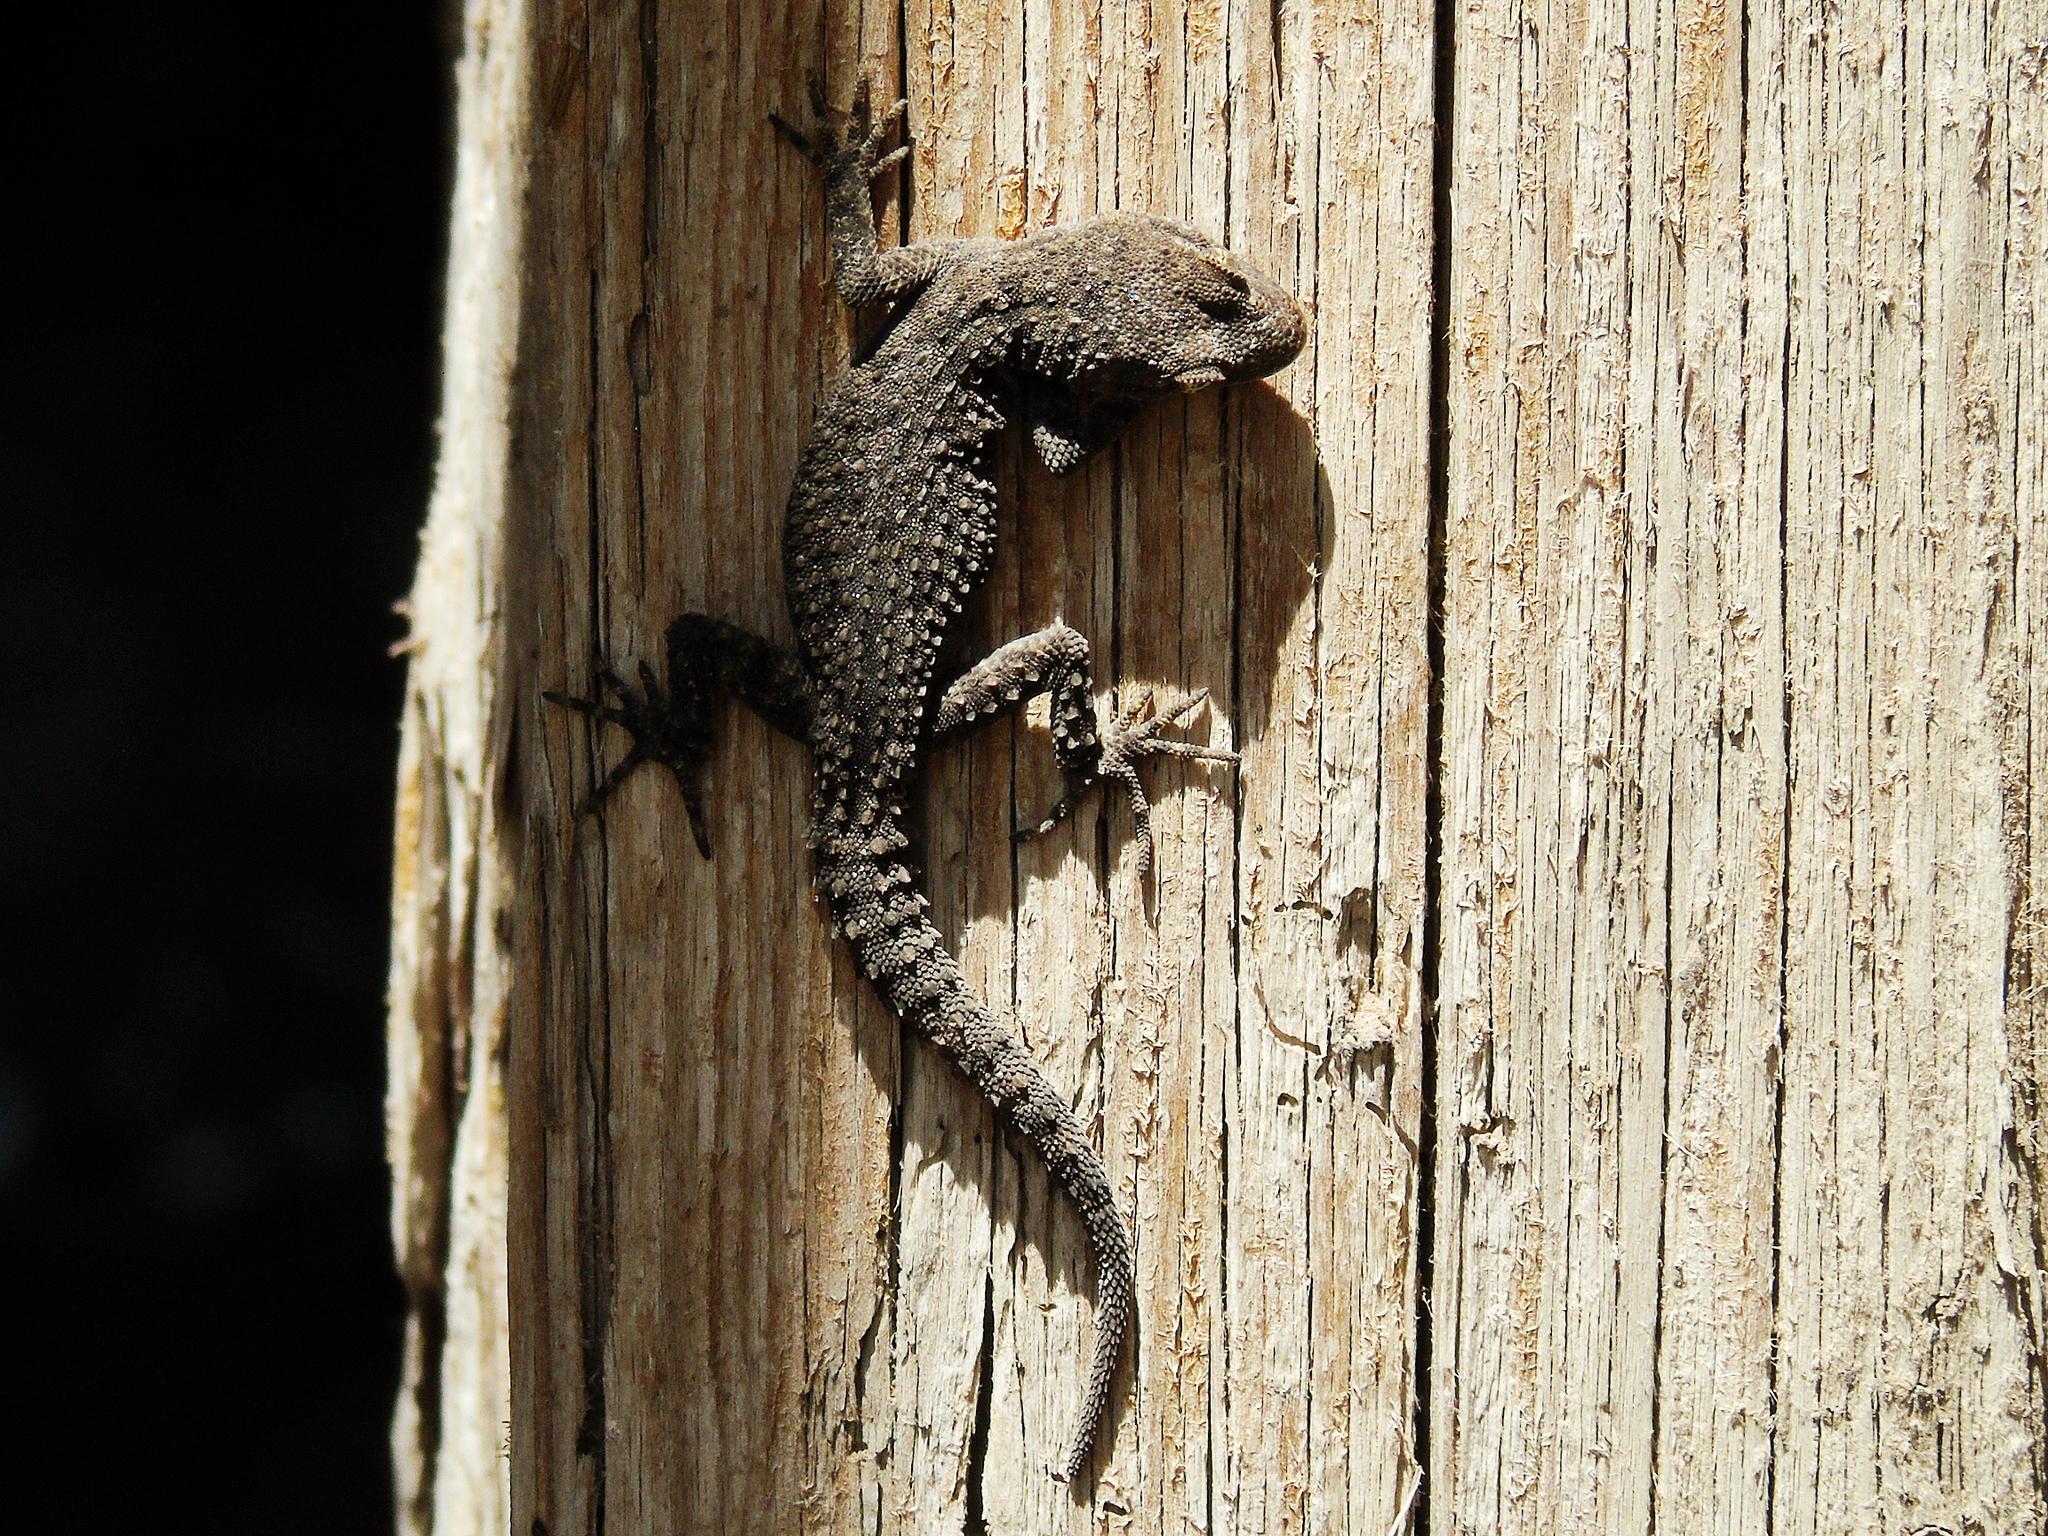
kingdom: Animalia
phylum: Chordata
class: Squamata
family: Gekkonidae
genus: Mediodactylus
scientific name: Mediodactylus kotschyi
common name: Kotschy's gecko
